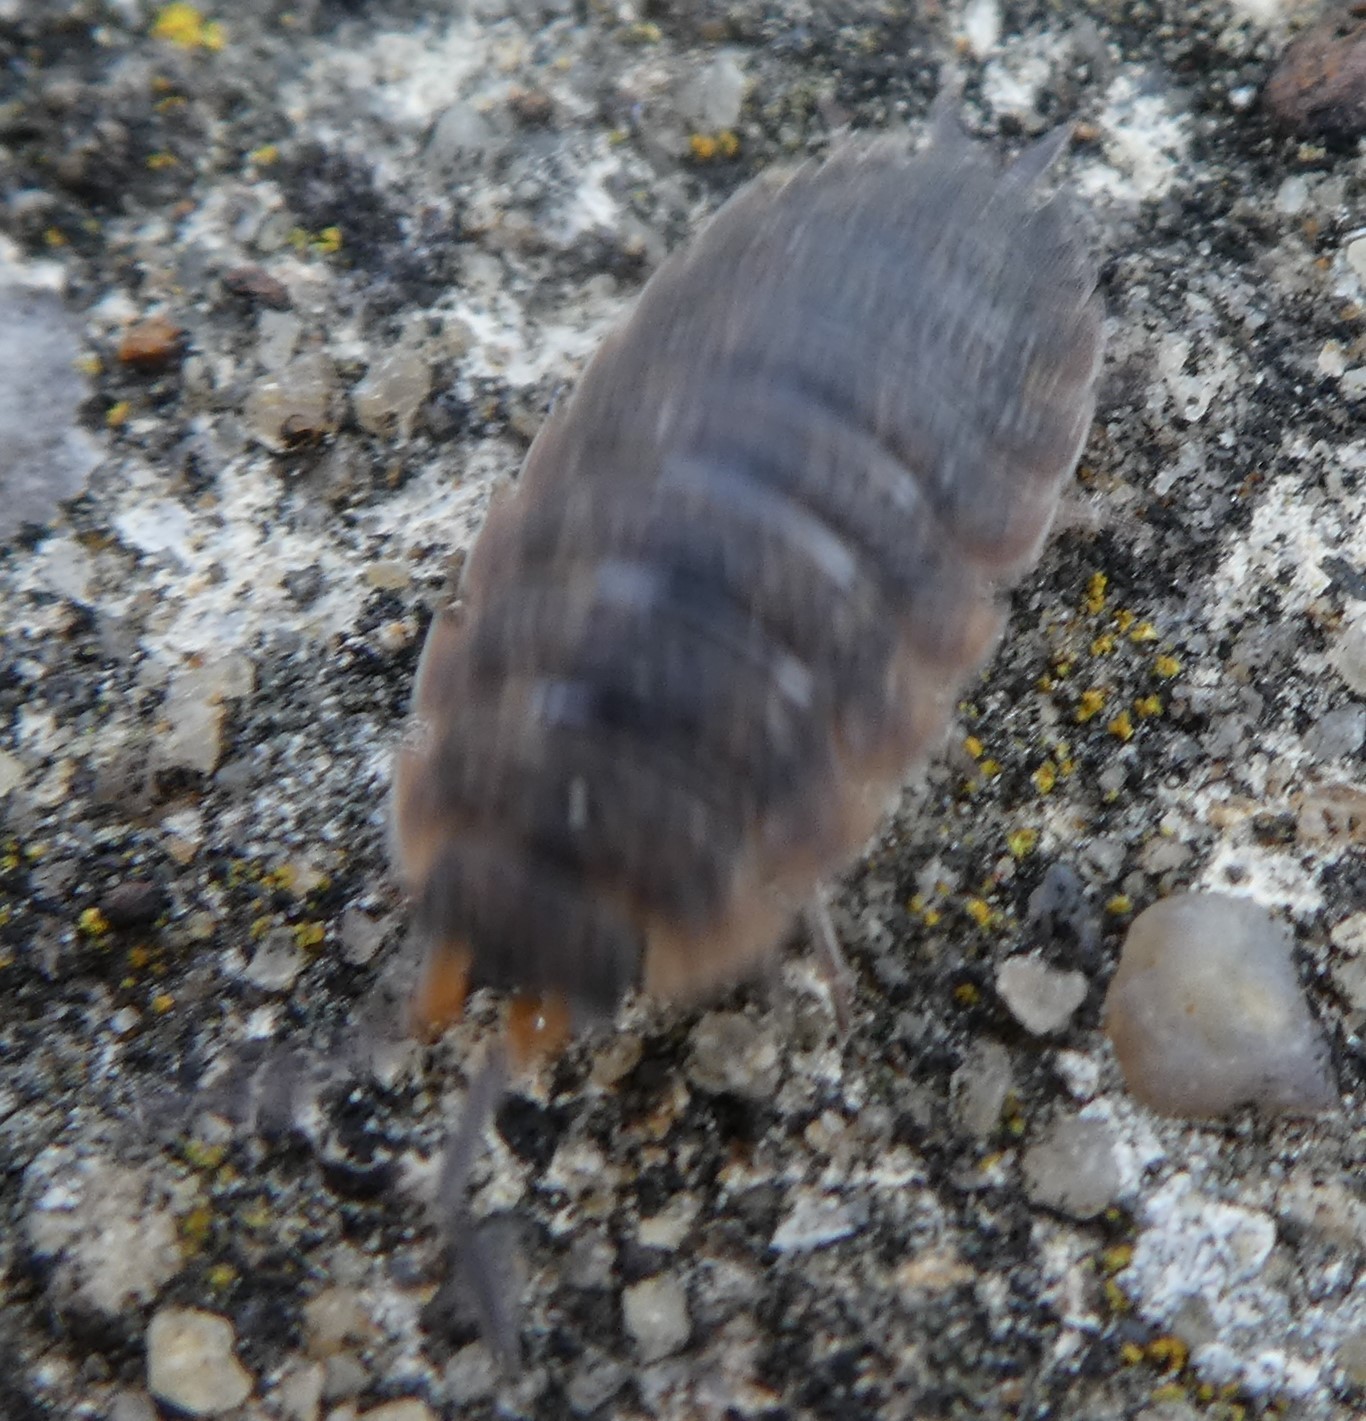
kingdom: Animalia
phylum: Arthropoda
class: Malacostraca
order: Isopoda
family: Porcellionidae
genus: Porcellio
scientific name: Porcellio scaber
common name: Common rough woodlouse
